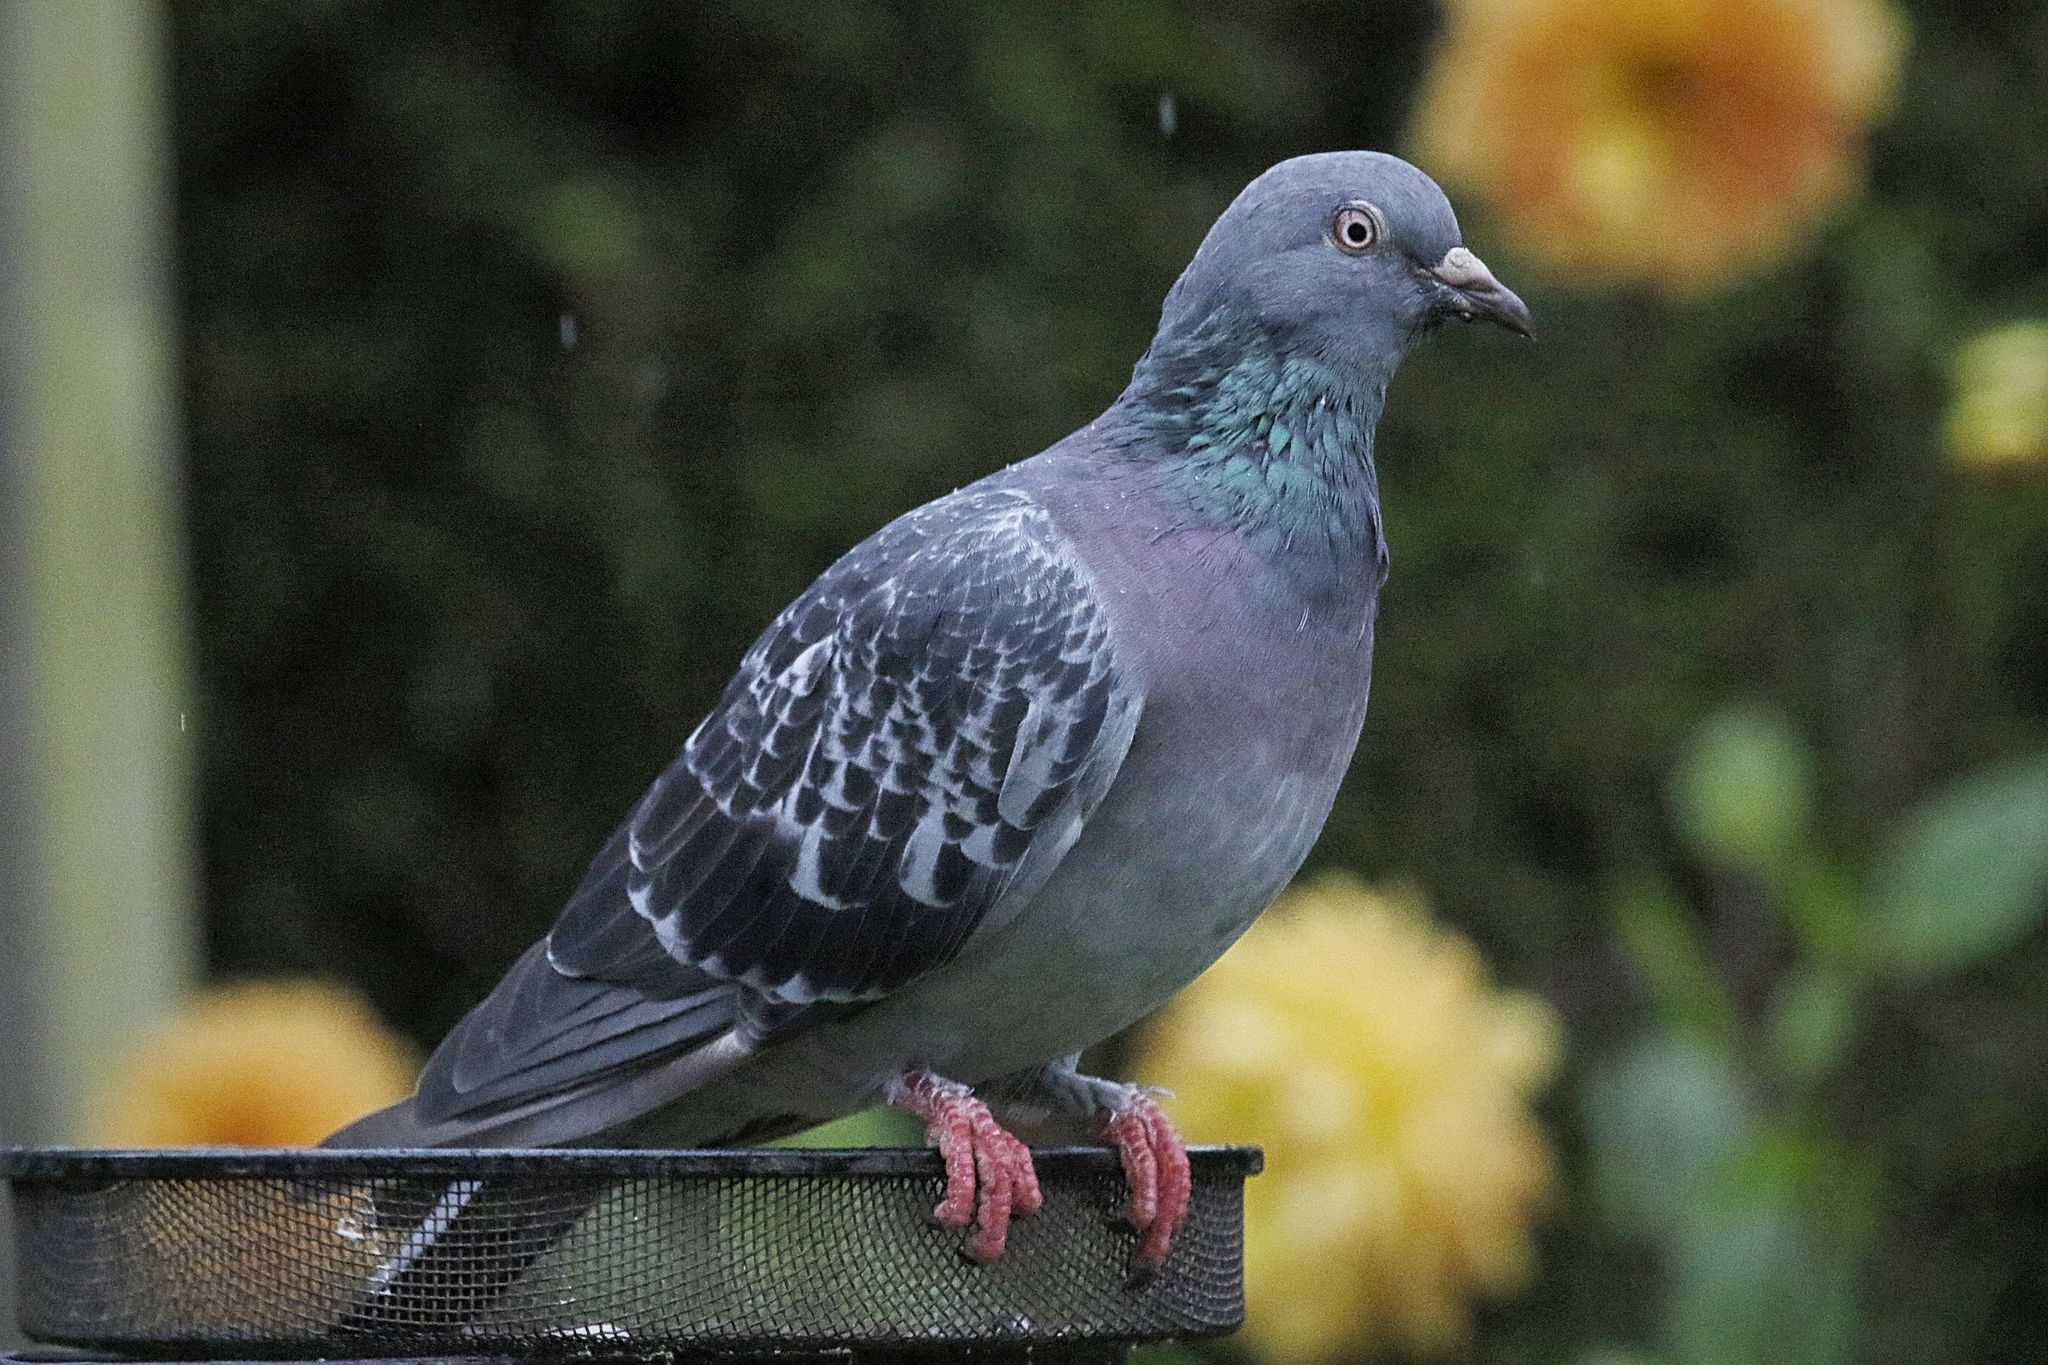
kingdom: Animalia
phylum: Chordata
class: Aves
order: Columbiformes
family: Columbidae
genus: Columba
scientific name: Columba livia
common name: Rock pigeon
